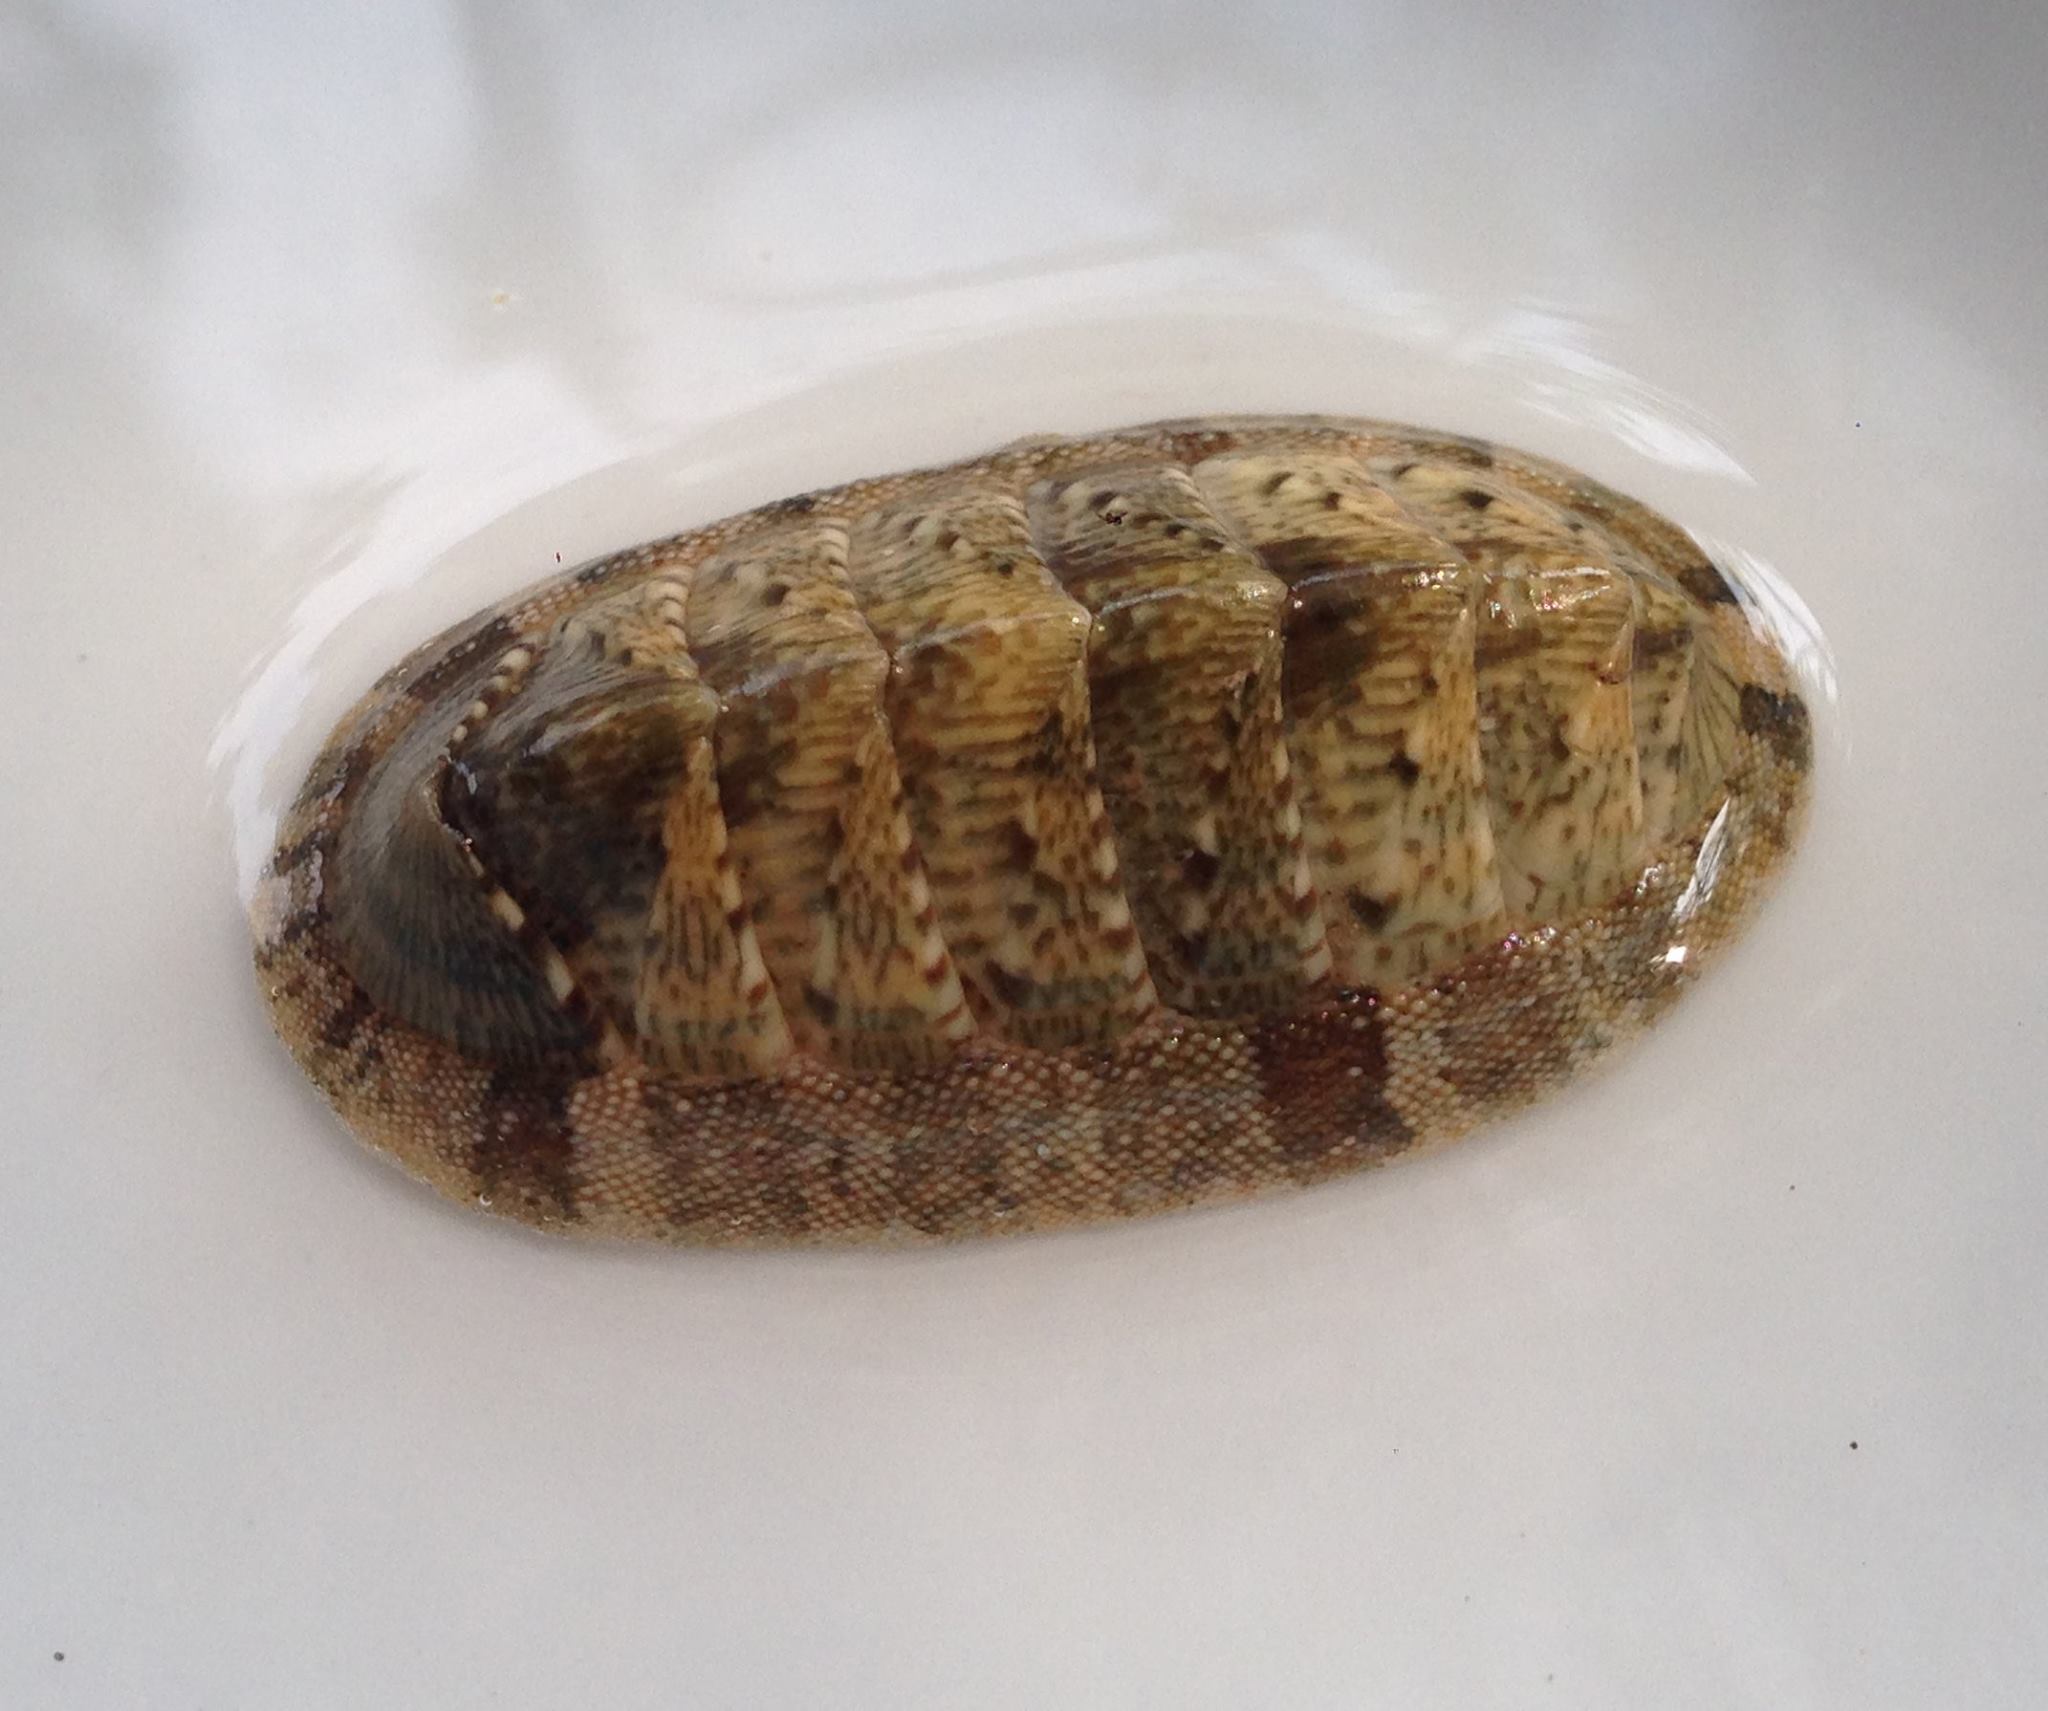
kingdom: Animalia
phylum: Mollusca
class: Polyplacophora
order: Chitonida
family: Chitonidae
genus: Rhyssoplax
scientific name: Rhyssoplax olivacea
